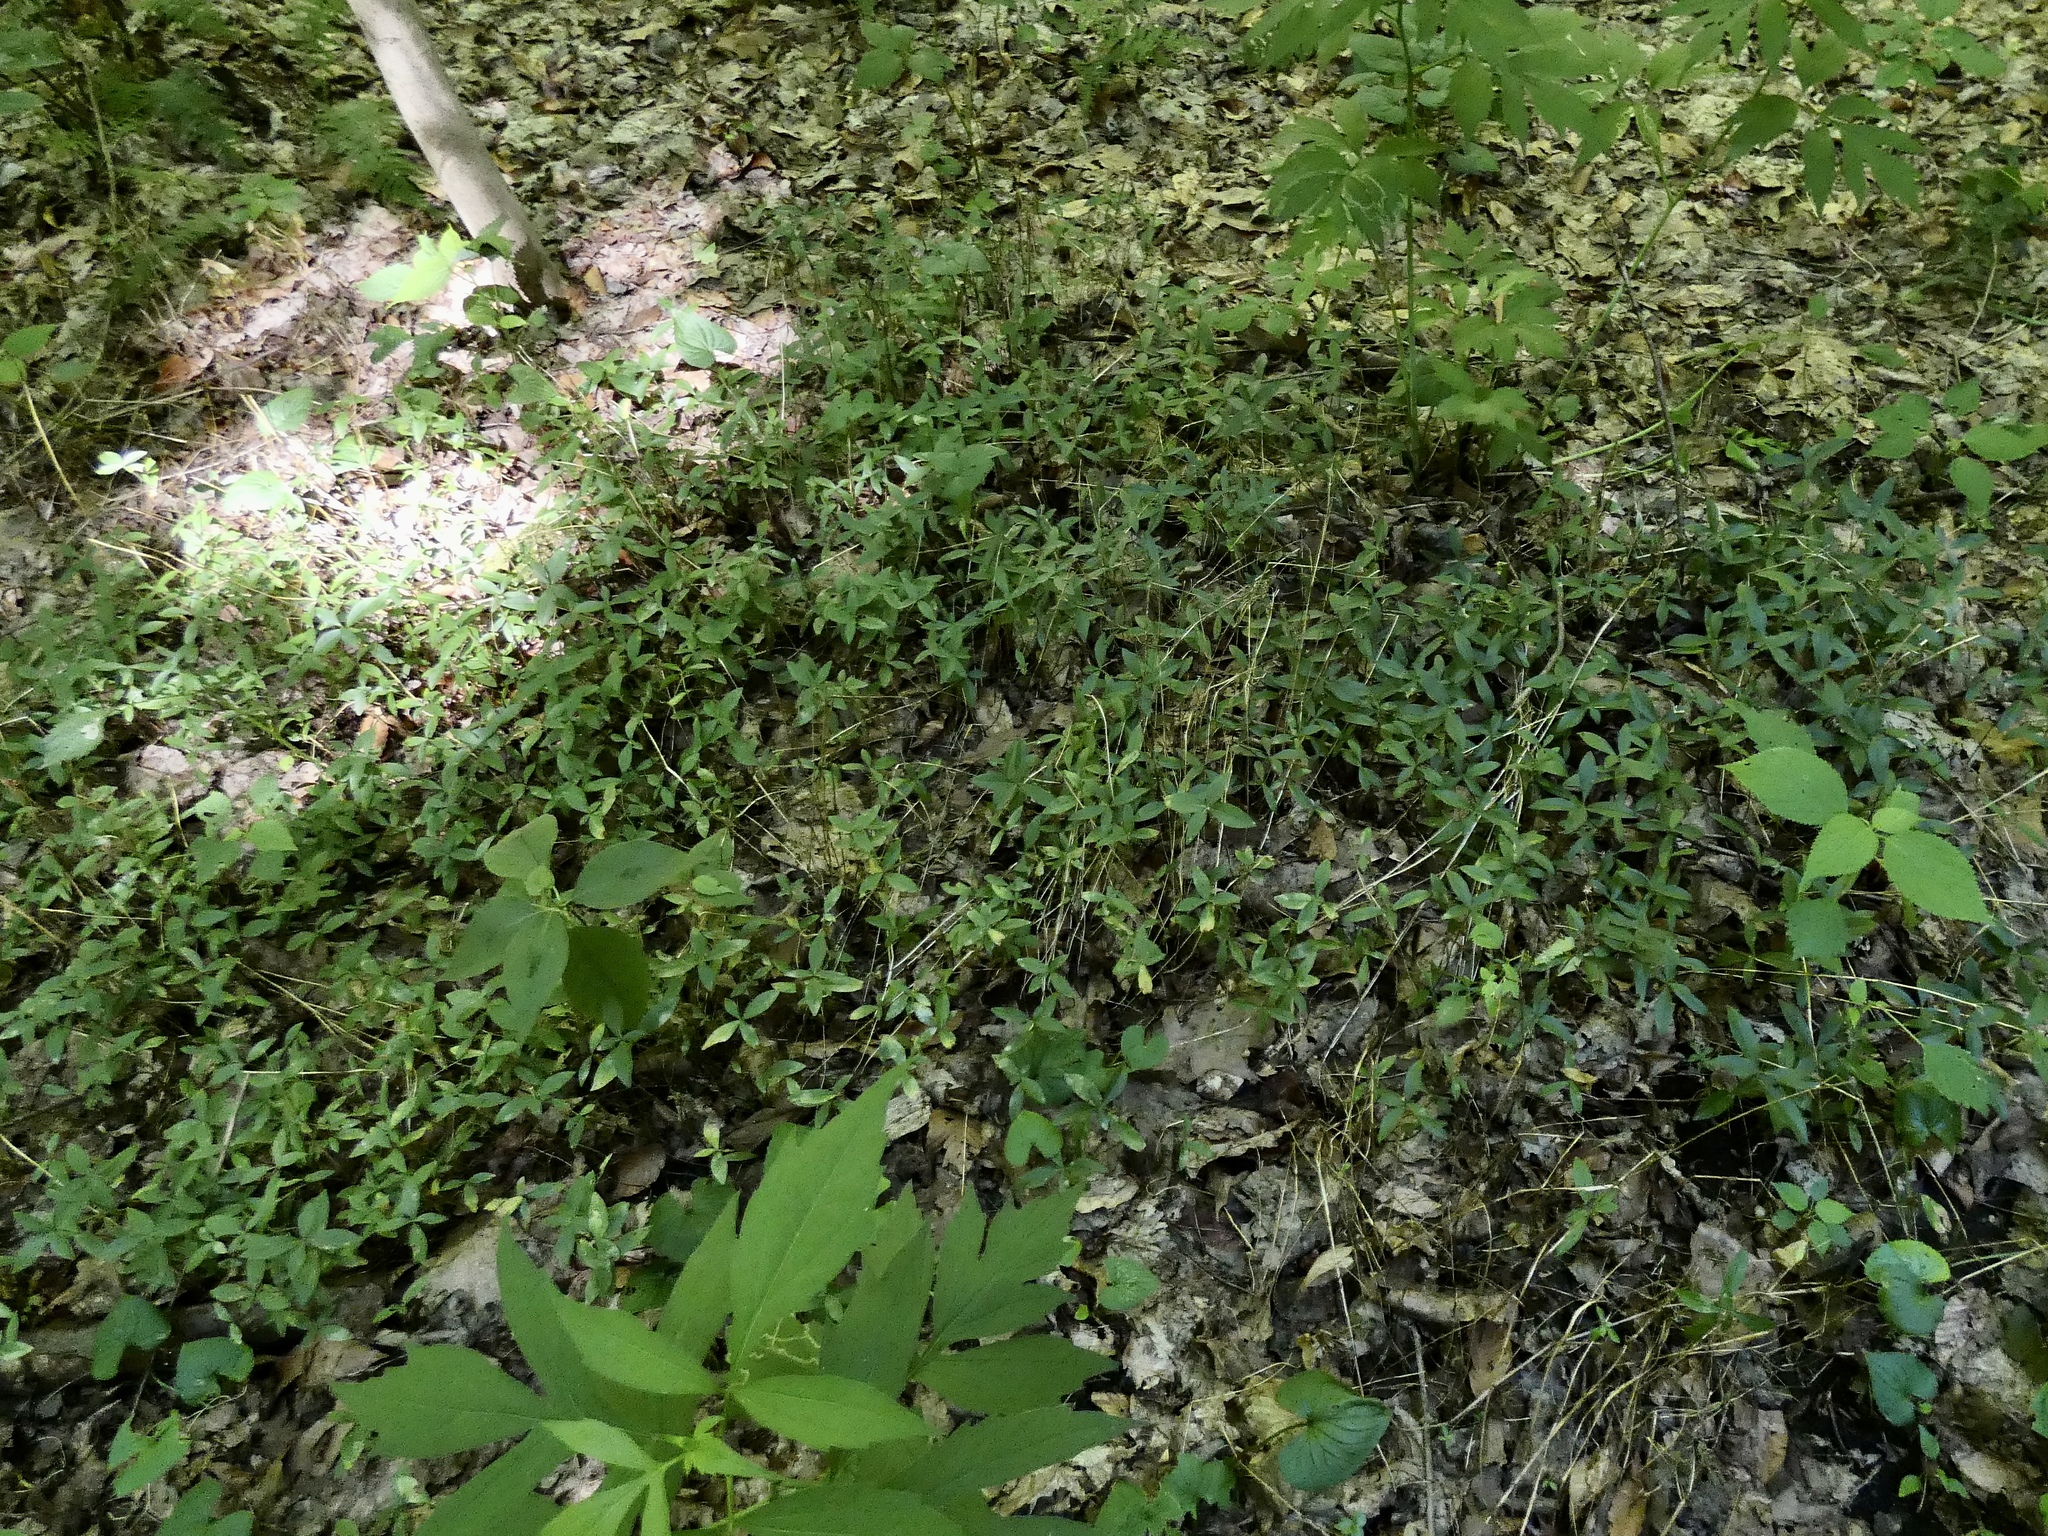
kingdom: Plantae
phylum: Tracheophyta
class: Magnoliopsida
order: Ericales
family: Polemoniaceae
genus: Phlox
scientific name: Phlox divaricata
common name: Blue phlox
